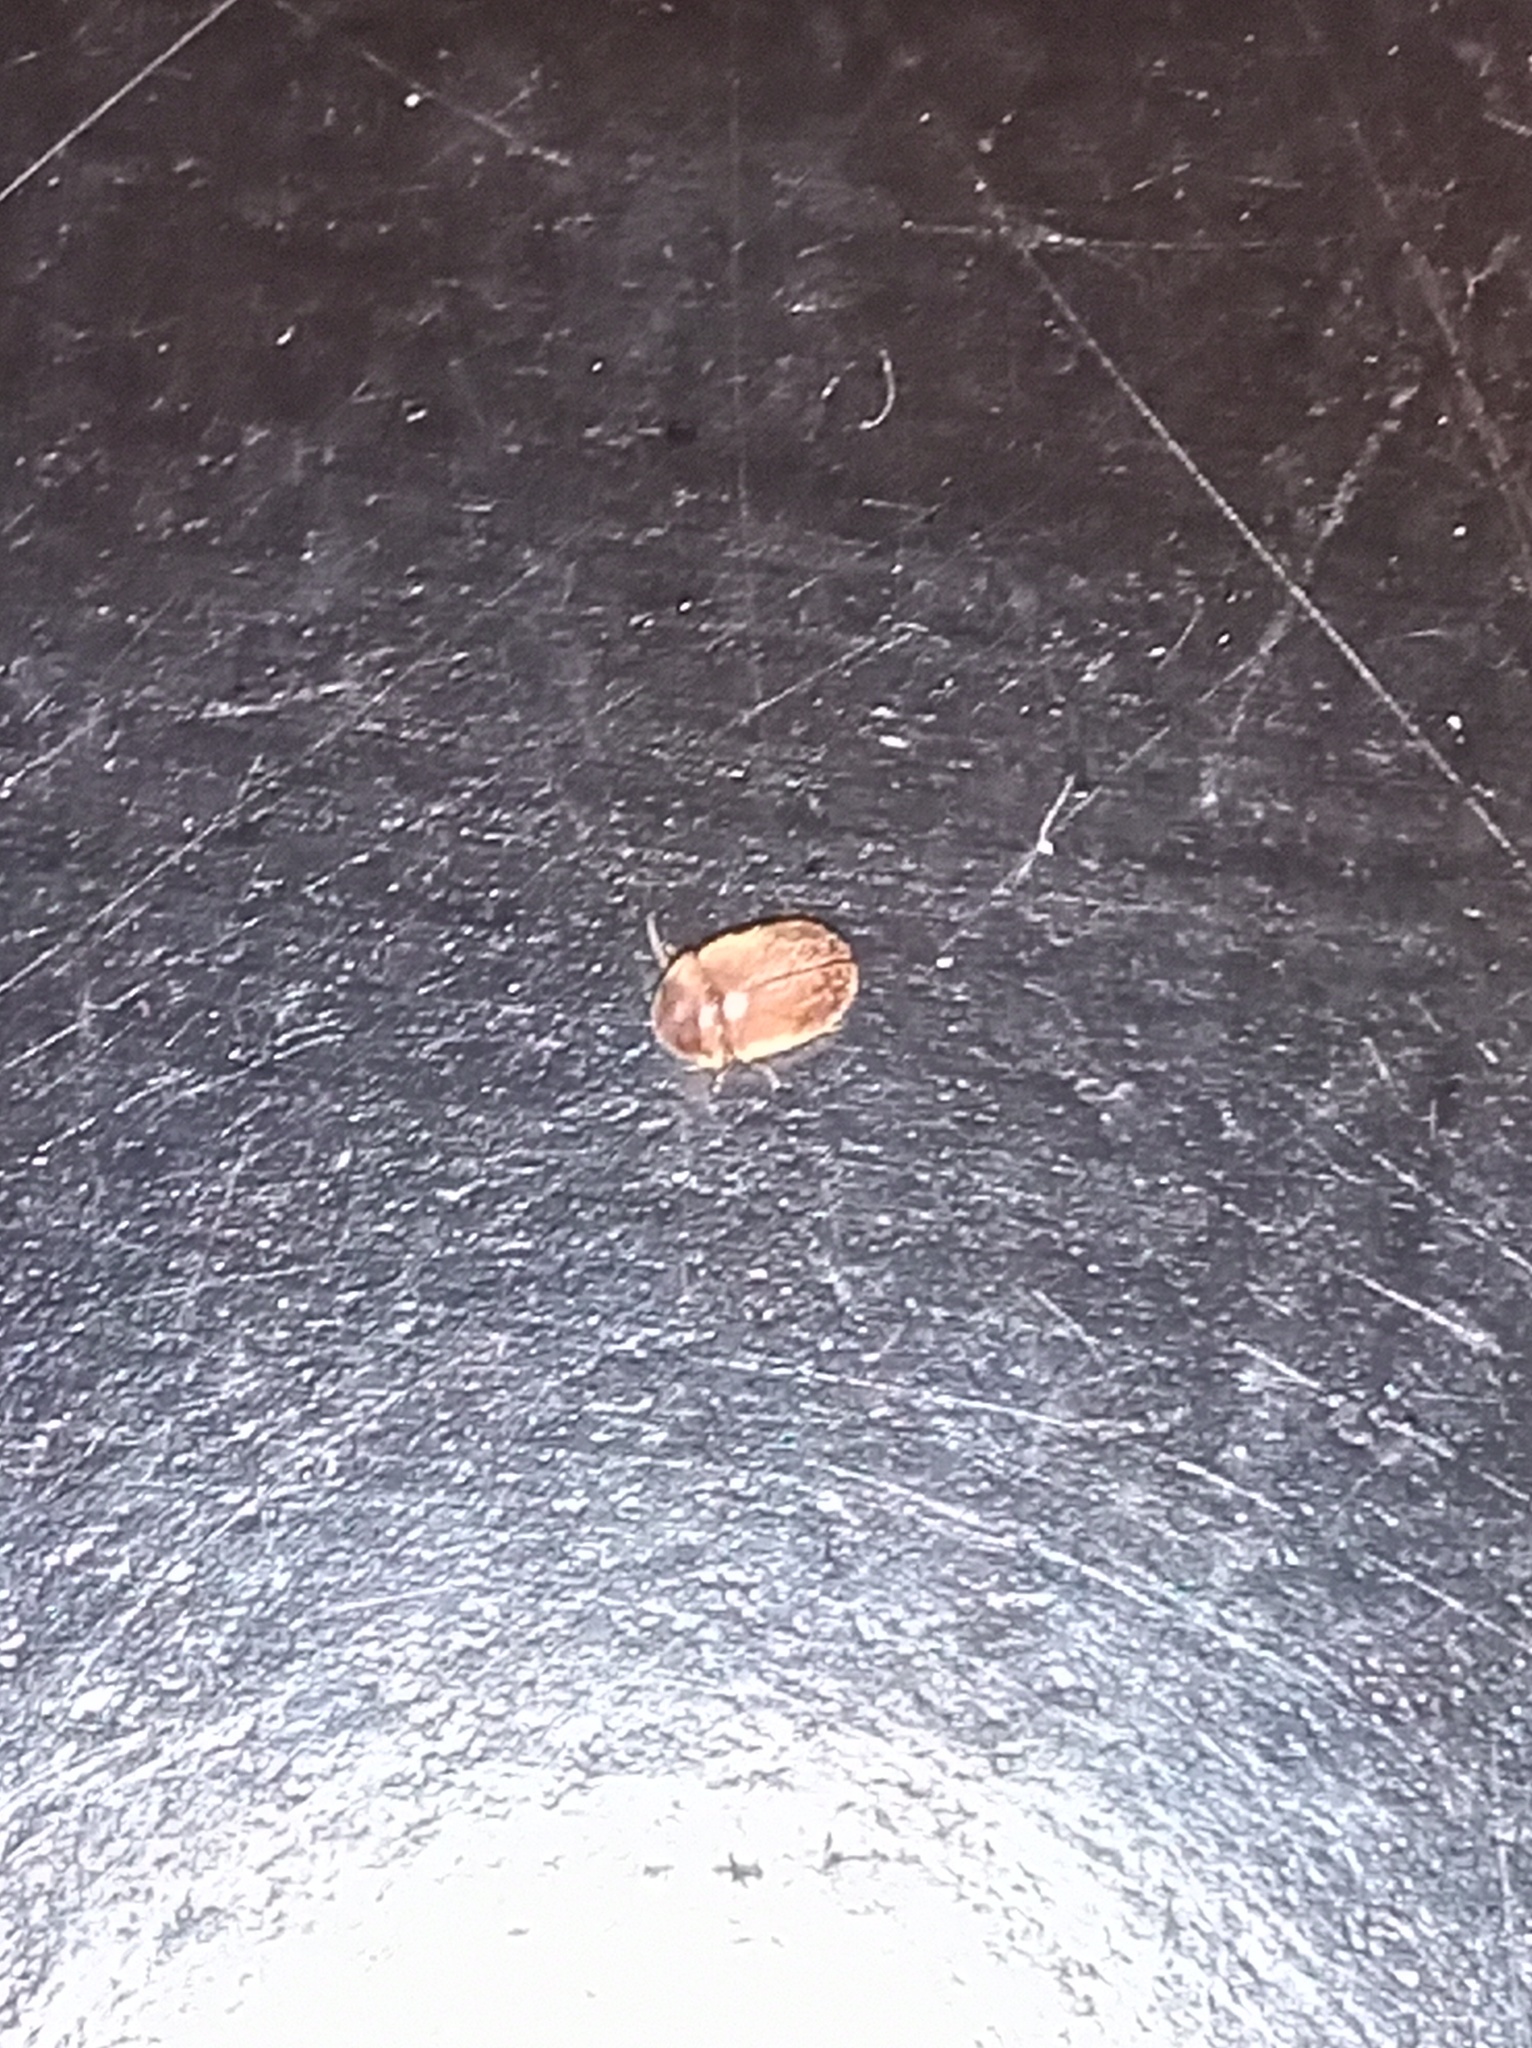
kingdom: Animalia
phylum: Arthropoda
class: Insecta
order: Coleoptera
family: Anobiidae
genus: Lasioderma
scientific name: Lasioderma serricorne
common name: Cigarette beetle
